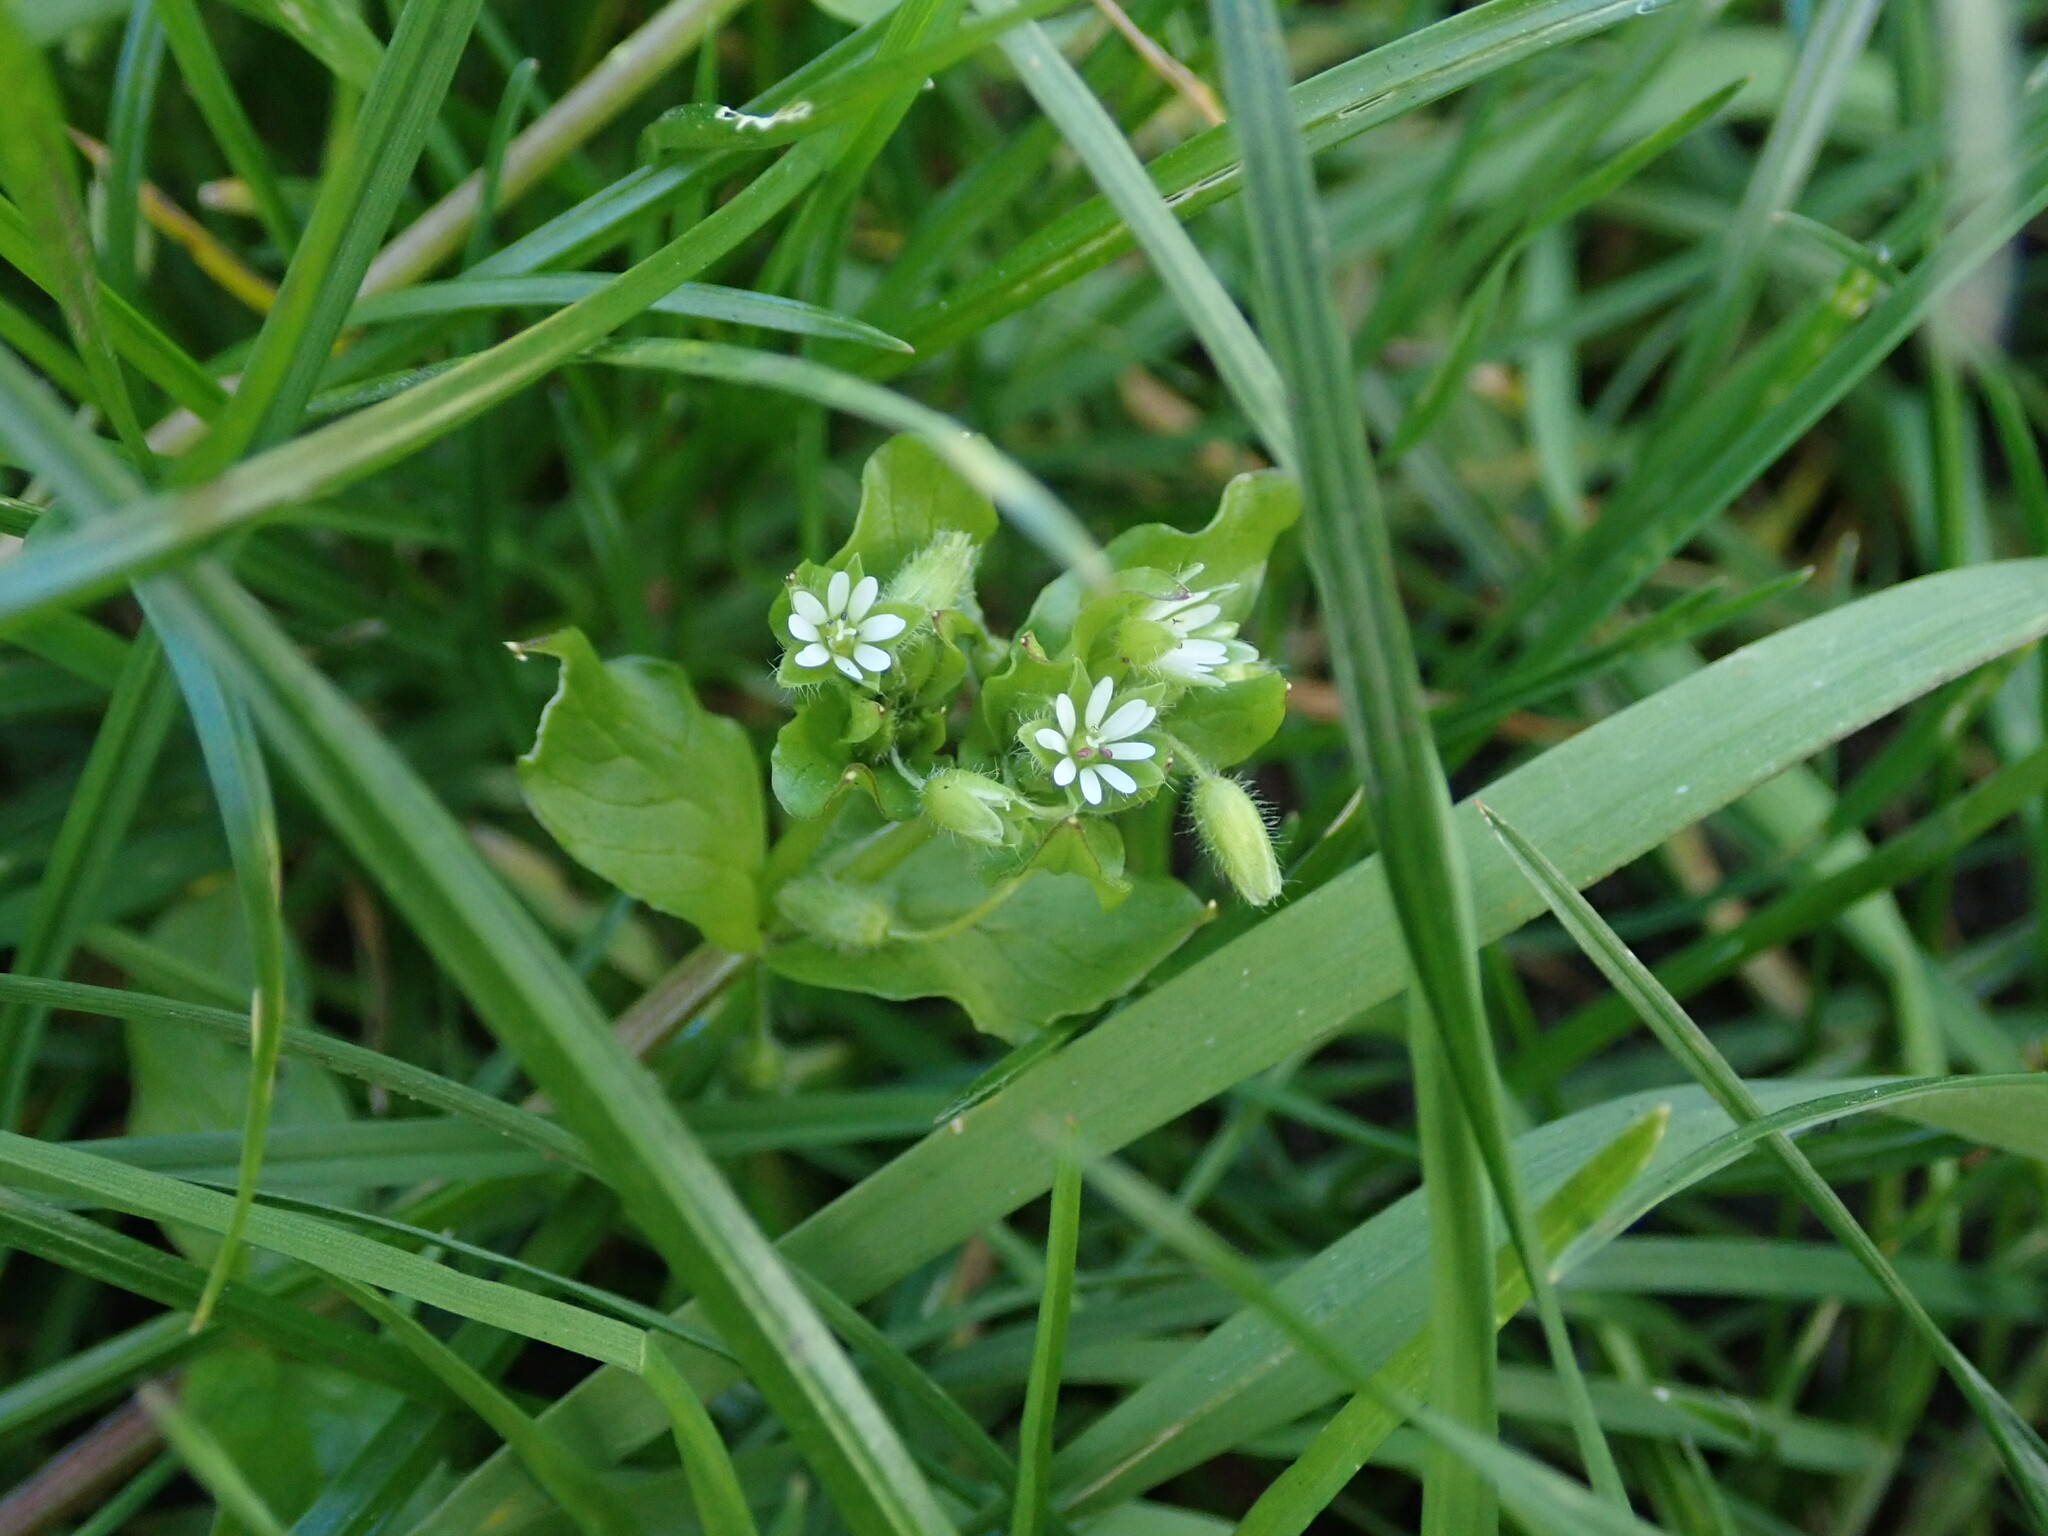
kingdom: Plantae
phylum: Tracheophyta
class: Magnoliopsida
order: Caryophyllales
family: Caryophyllaceae
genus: Stellaria
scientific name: Stellaria media
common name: Common chickweed
